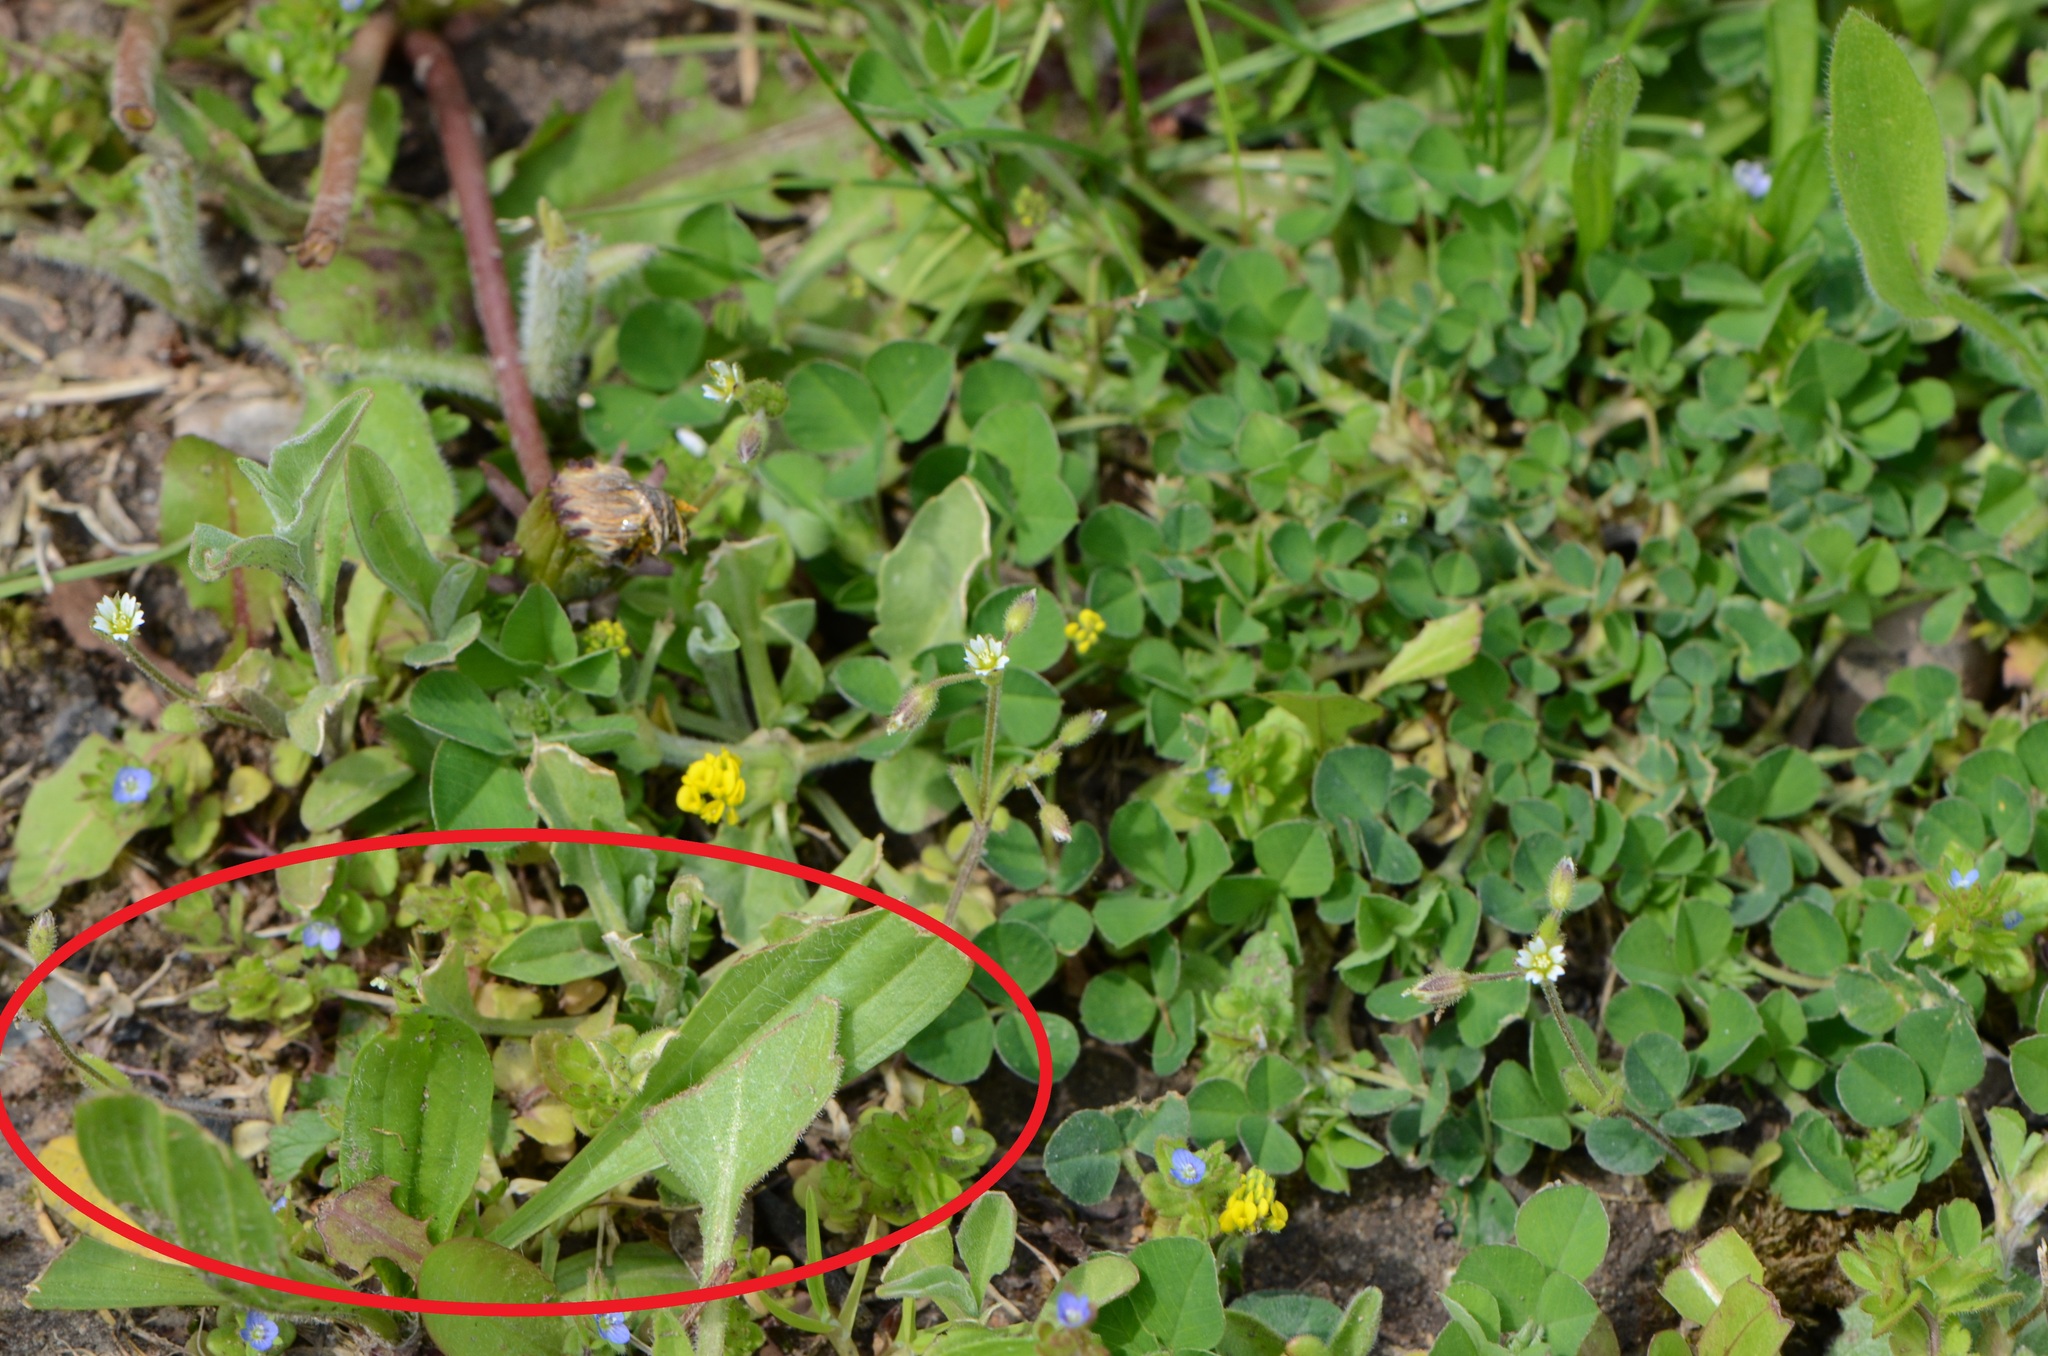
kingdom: Plantae
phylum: Tracheophyta
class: Magnoliopsida
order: Lamiales
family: Plantaginaceae
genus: Plantago
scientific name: Plantago lanceolata
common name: Ribwort plantain
